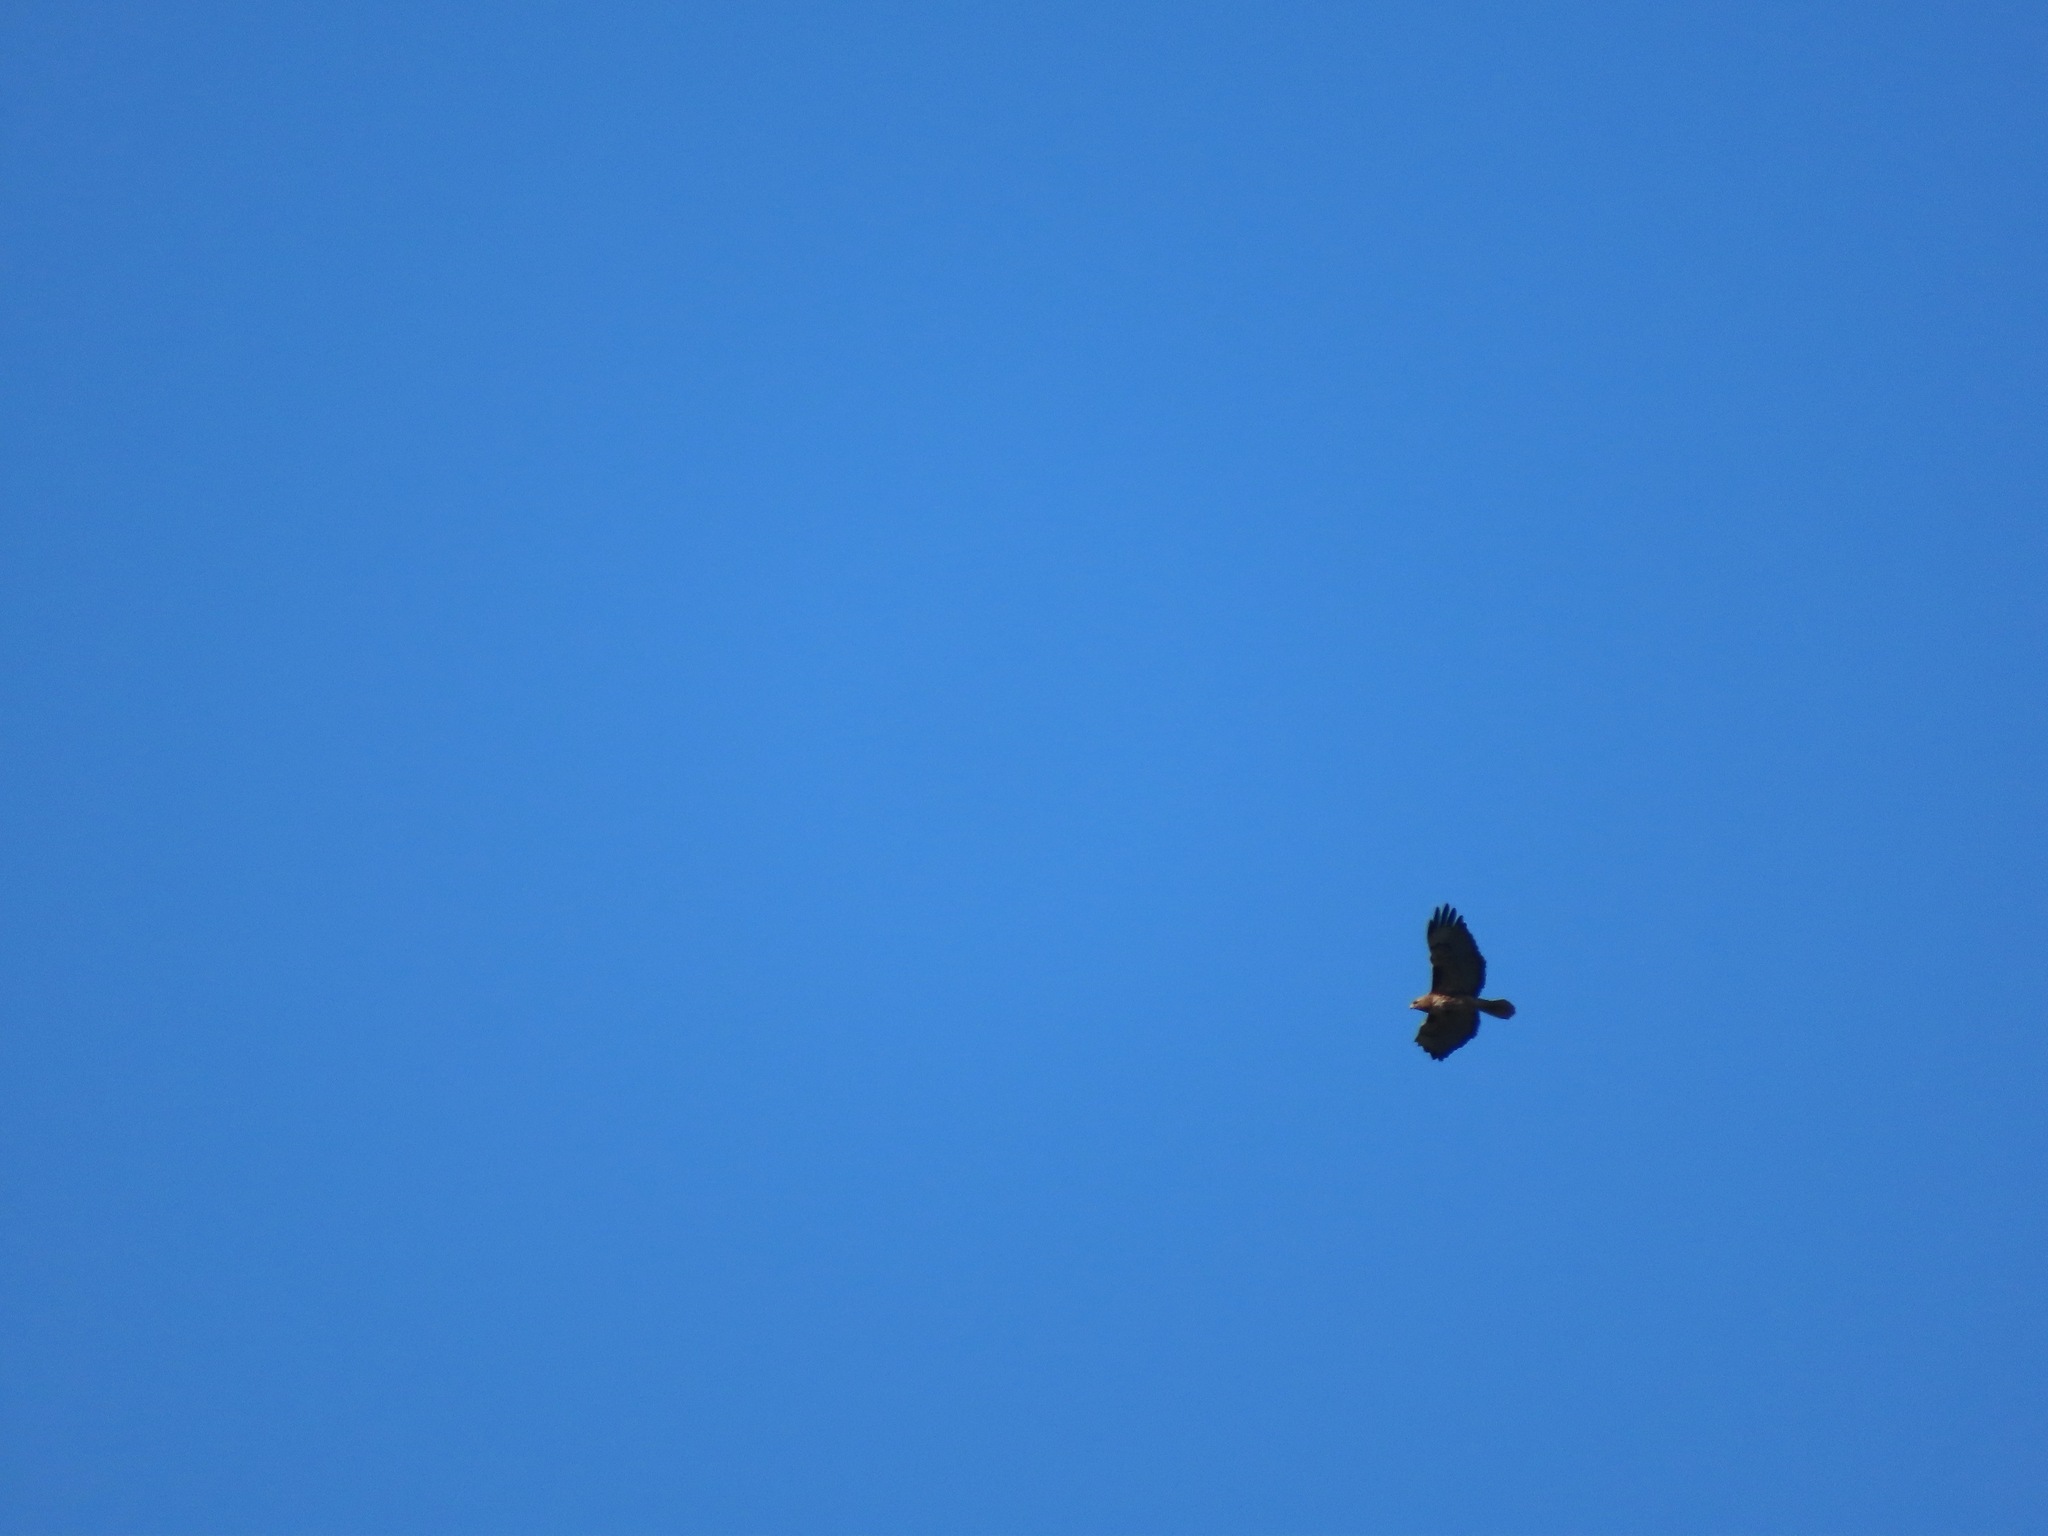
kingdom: Animalia
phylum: Chordata
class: Aves
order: Accipitriformes
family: Accipitridae
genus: Buteo
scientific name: Buteo jamaicensis
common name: Red-tailed hawk
